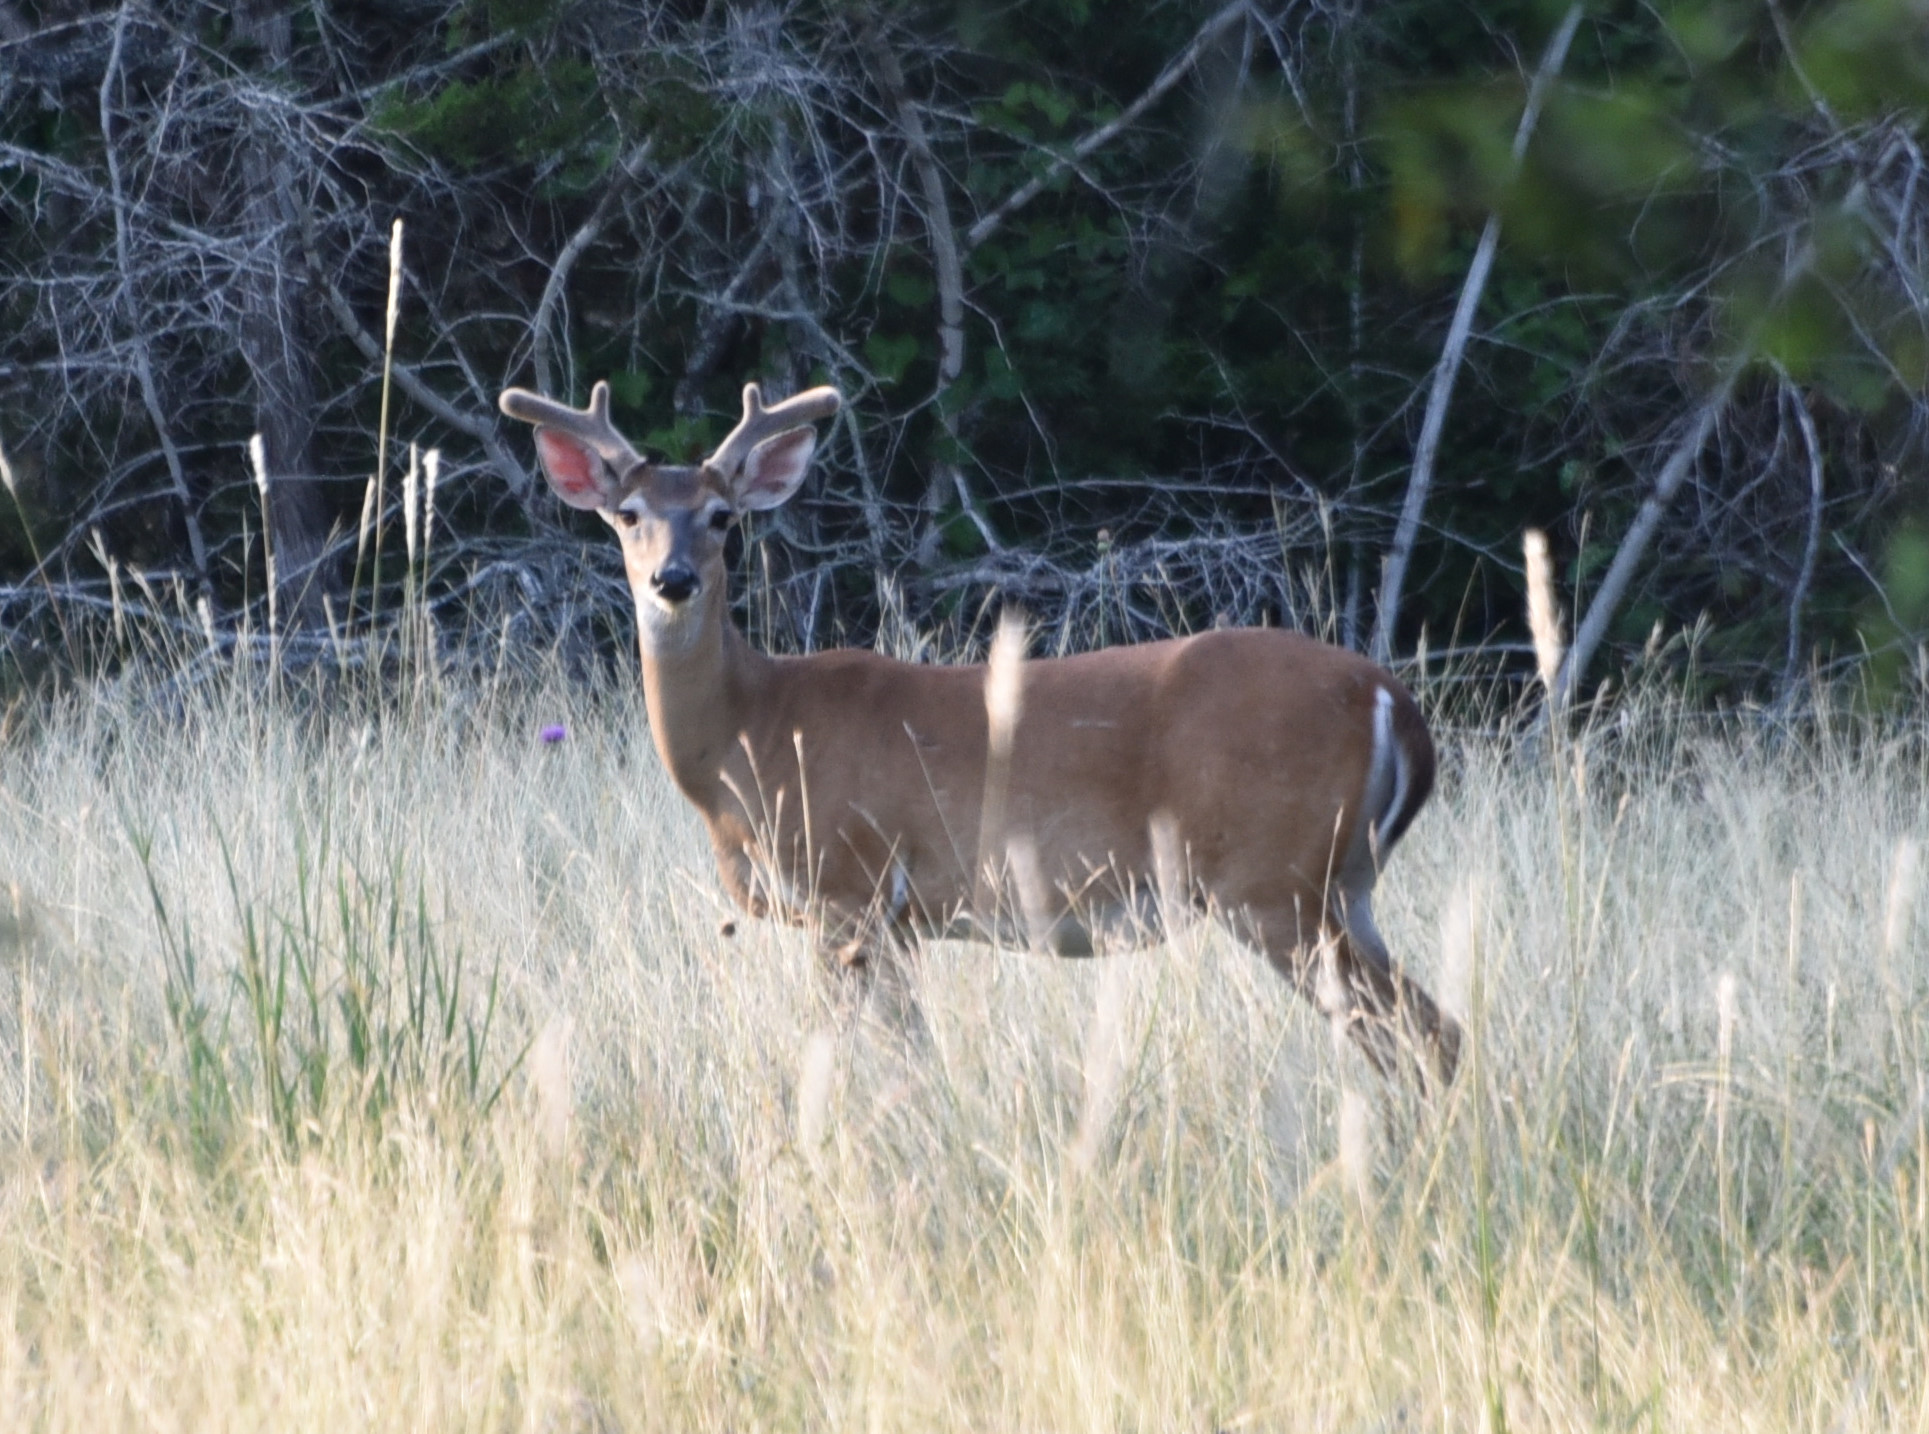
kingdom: Animalia
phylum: Chordata
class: Mammalia
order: Artiodactyla
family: Cervidae
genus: Odocoileus
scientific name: Odocoileus virginianus
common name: White-tailed deer
